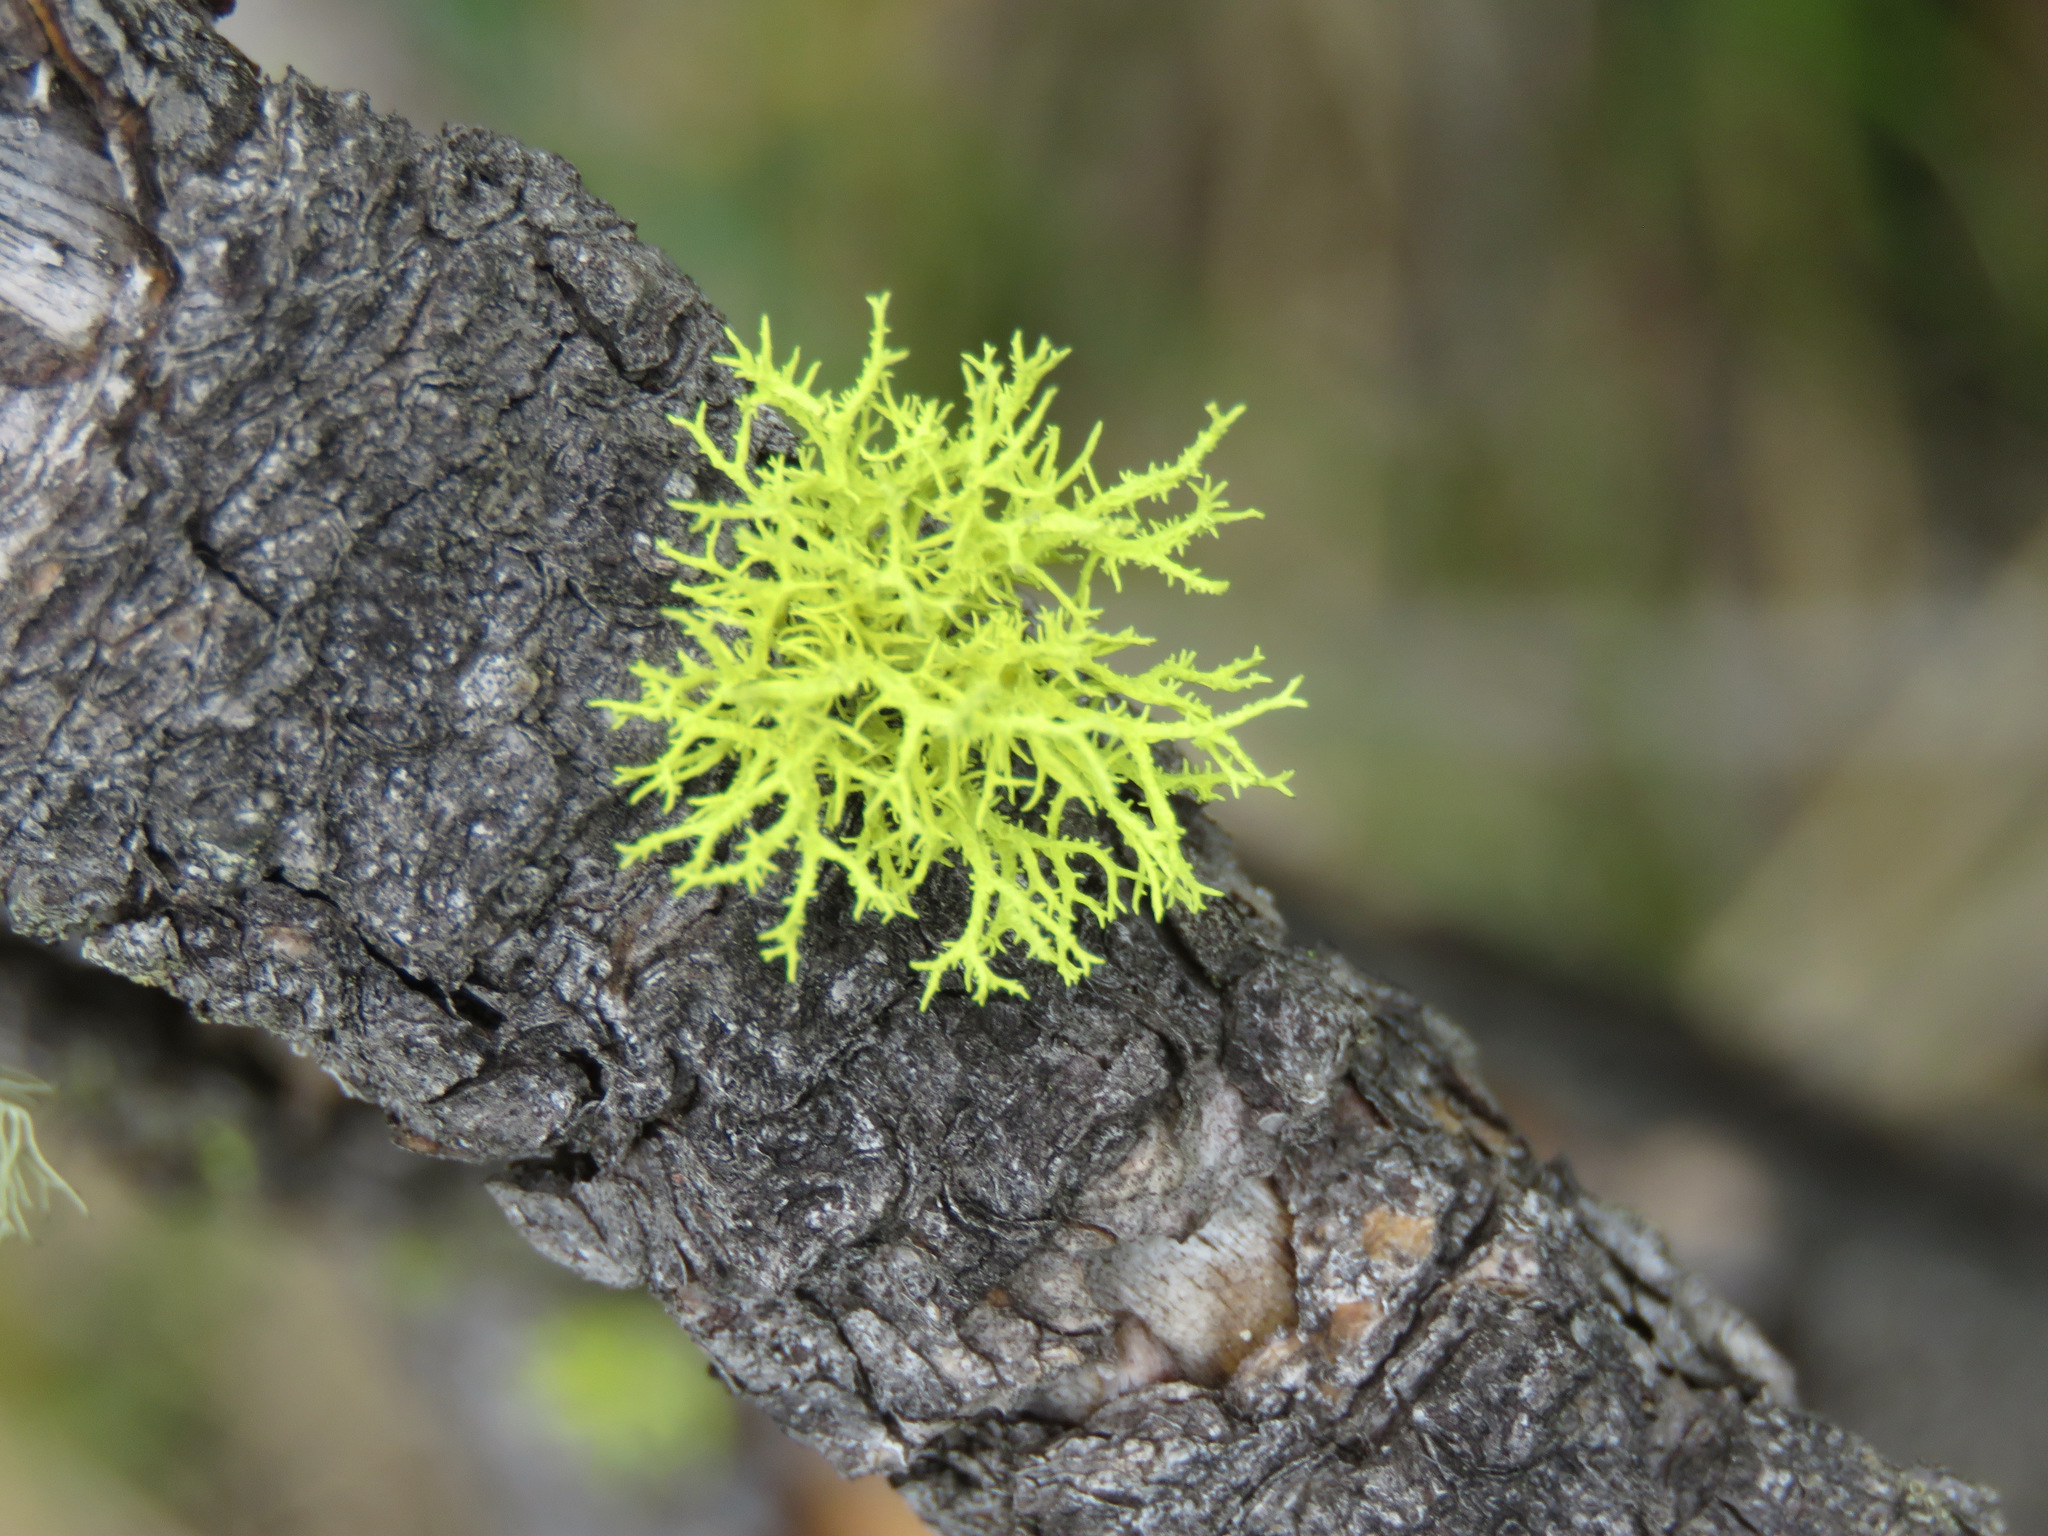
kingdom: Fungi
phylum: Ascomycota
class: Lecanoromycetes
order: Lecanorales
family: Parmeliaceae
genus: Letharia
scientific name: Letharia vulpina
